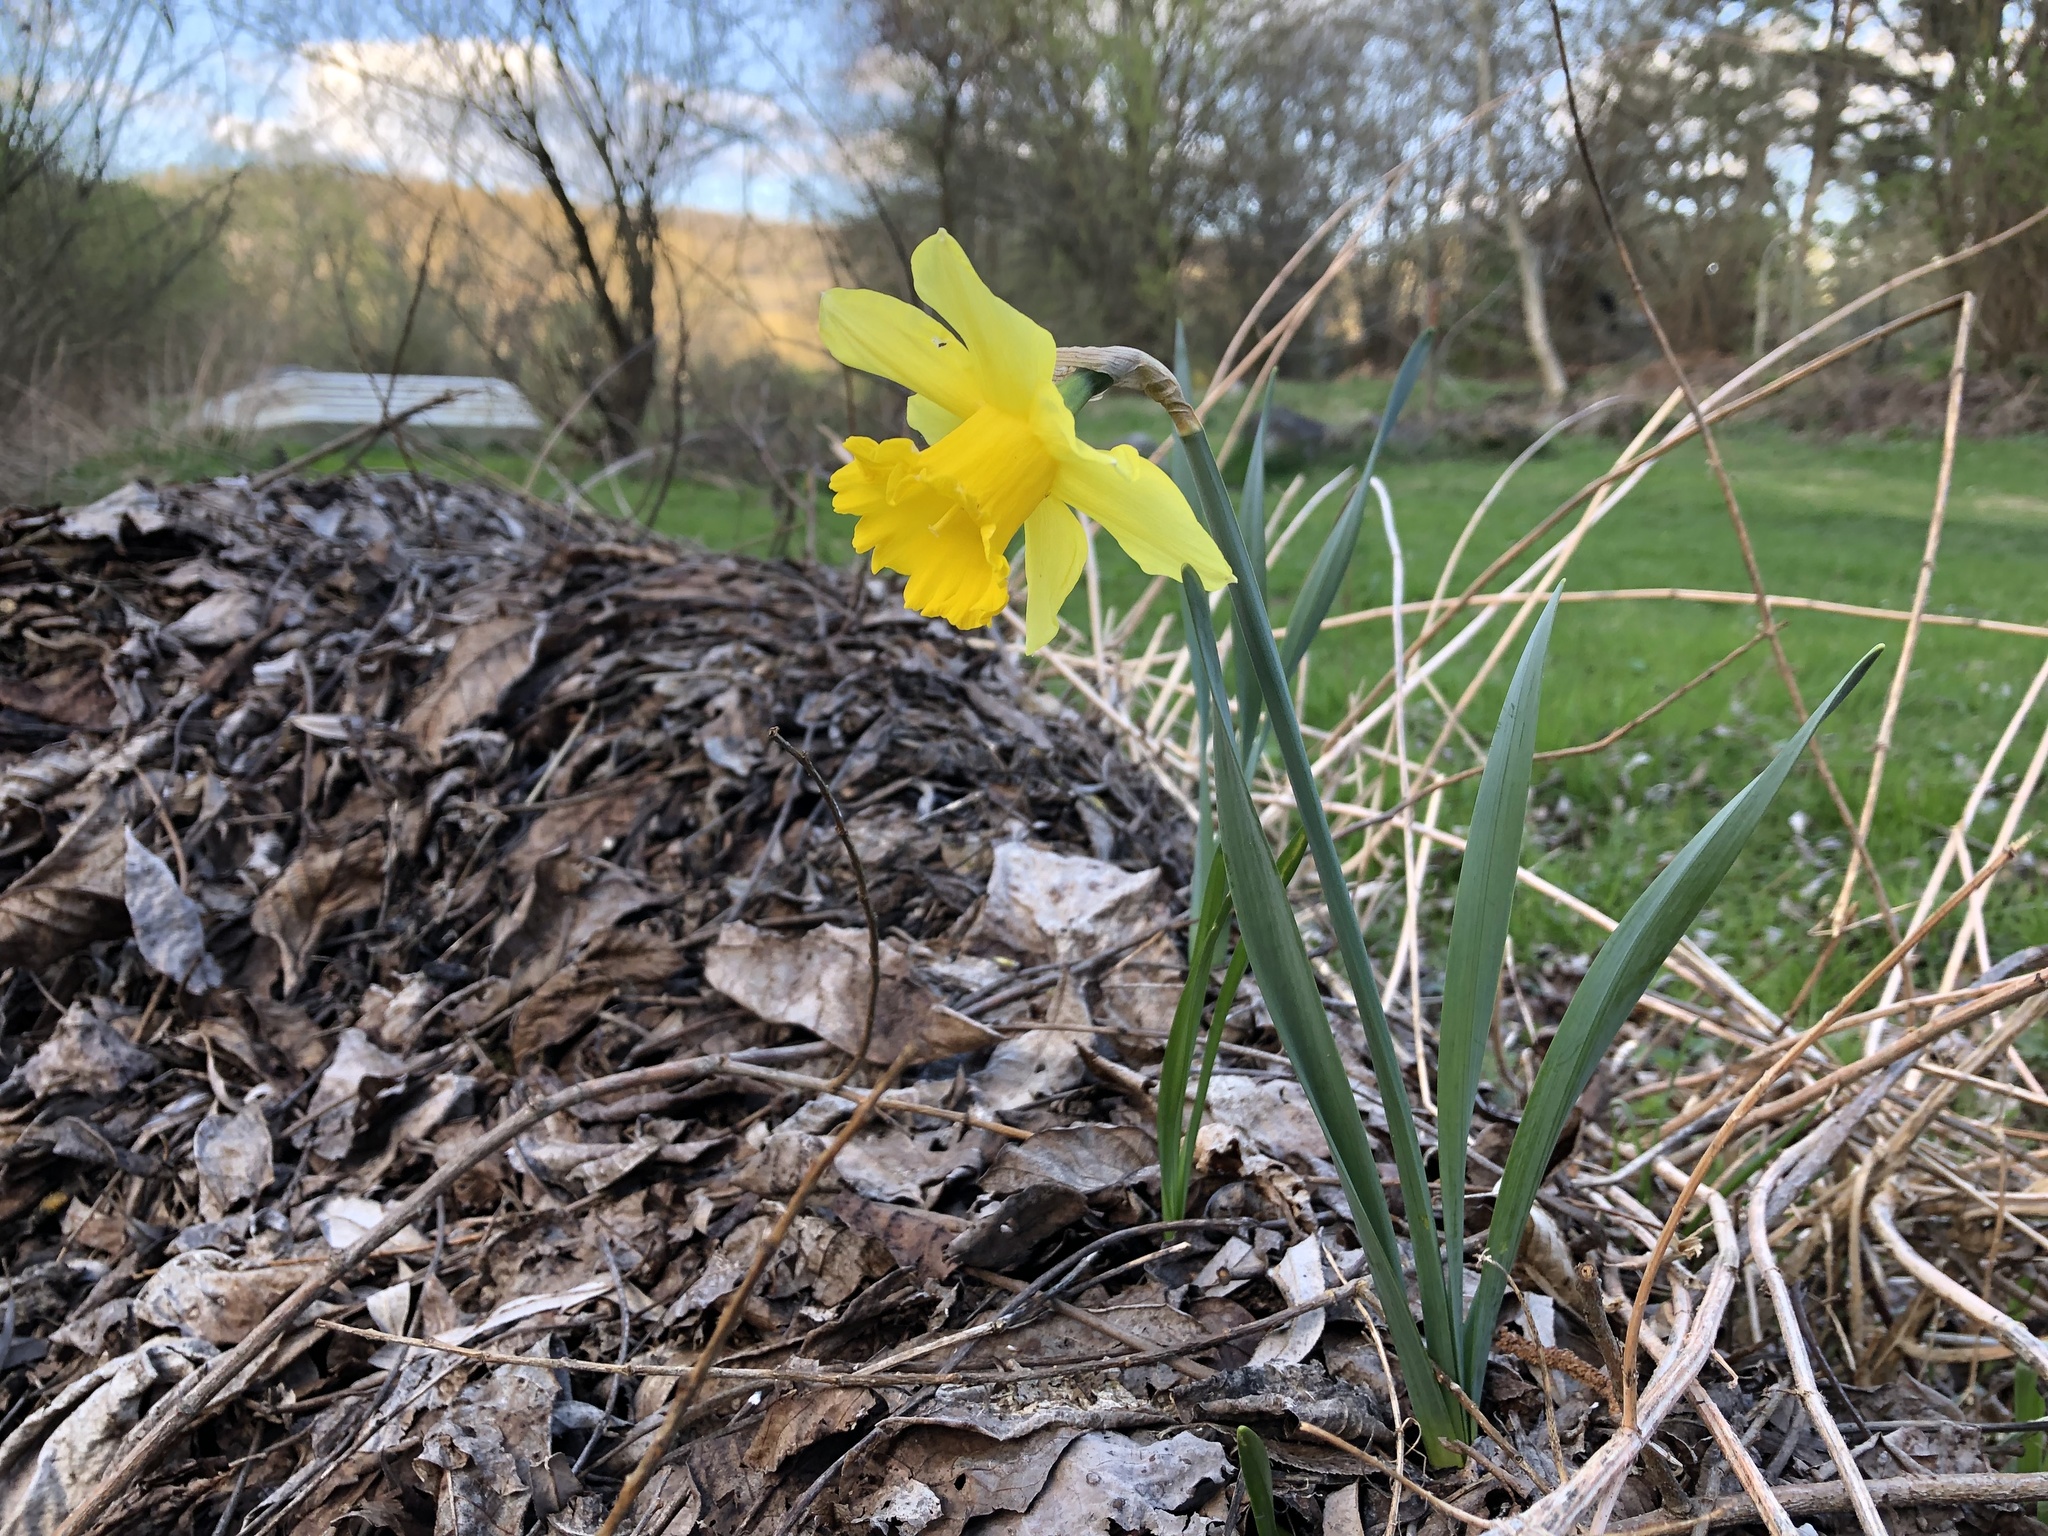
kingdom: Plantae
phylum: Tracheophyta
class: Liliopsida
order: Asparagales
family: Amaryllidaceae
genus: Narcissus
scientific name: Narcissus pseudonarcissus
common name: Daffodil
